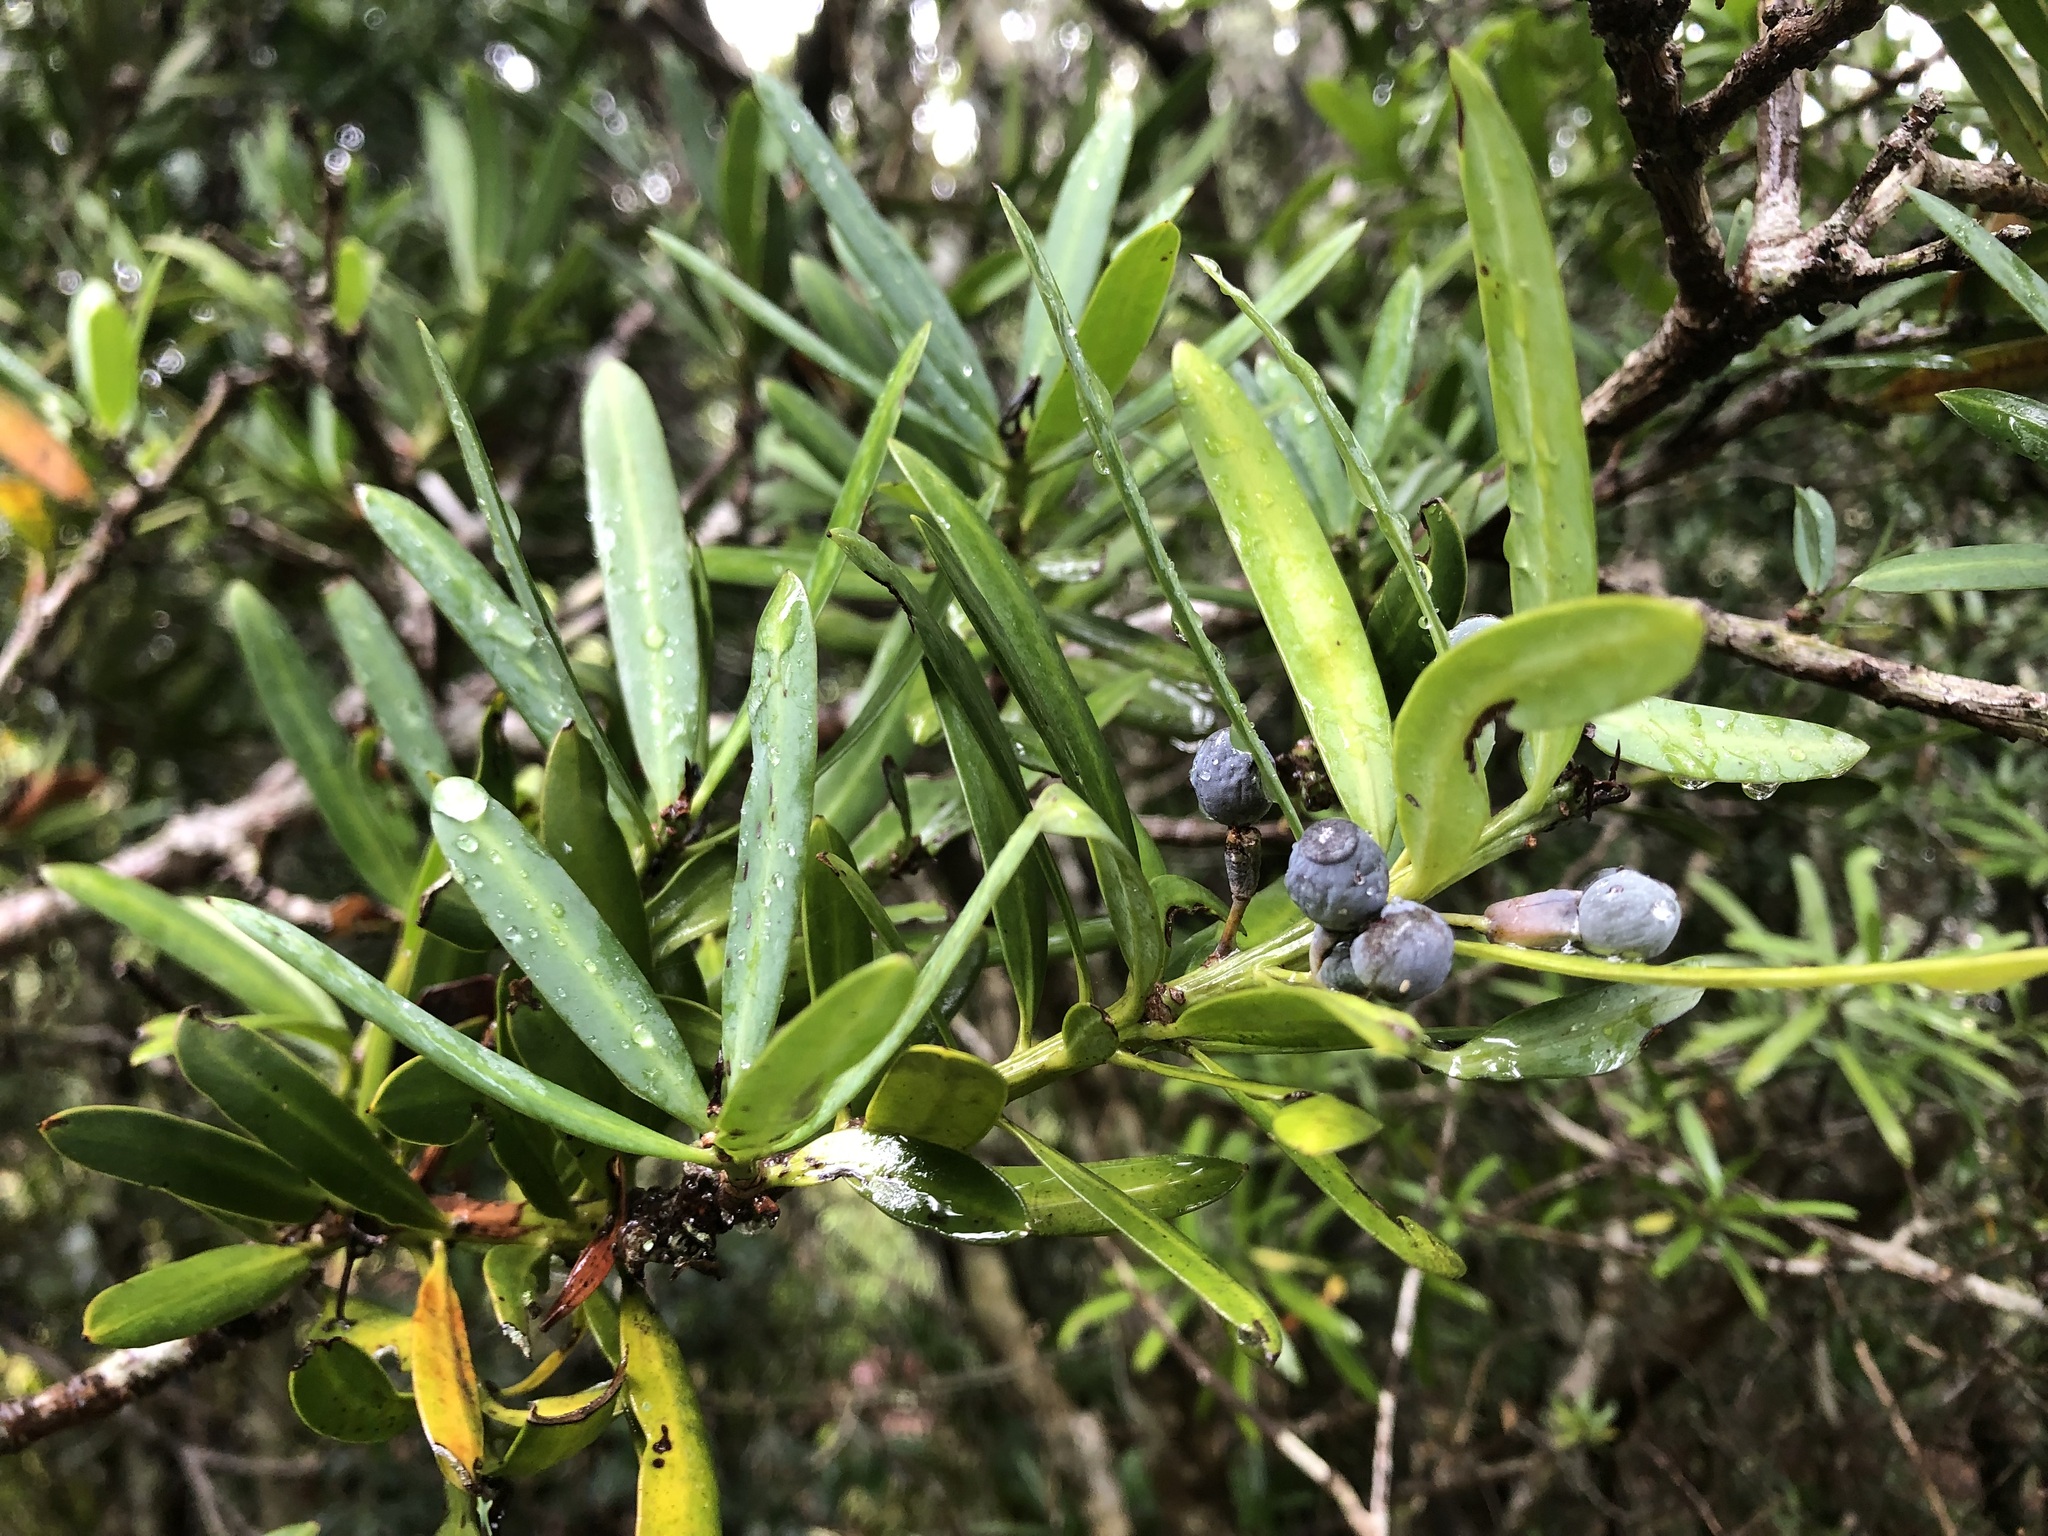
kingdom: Plantae
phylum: Tracheophyta
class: Pinopsida
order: Pinales
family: Podocarpaceae
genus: Podocarpus
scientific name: Podocarpus latifolius
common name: True yellowwood
